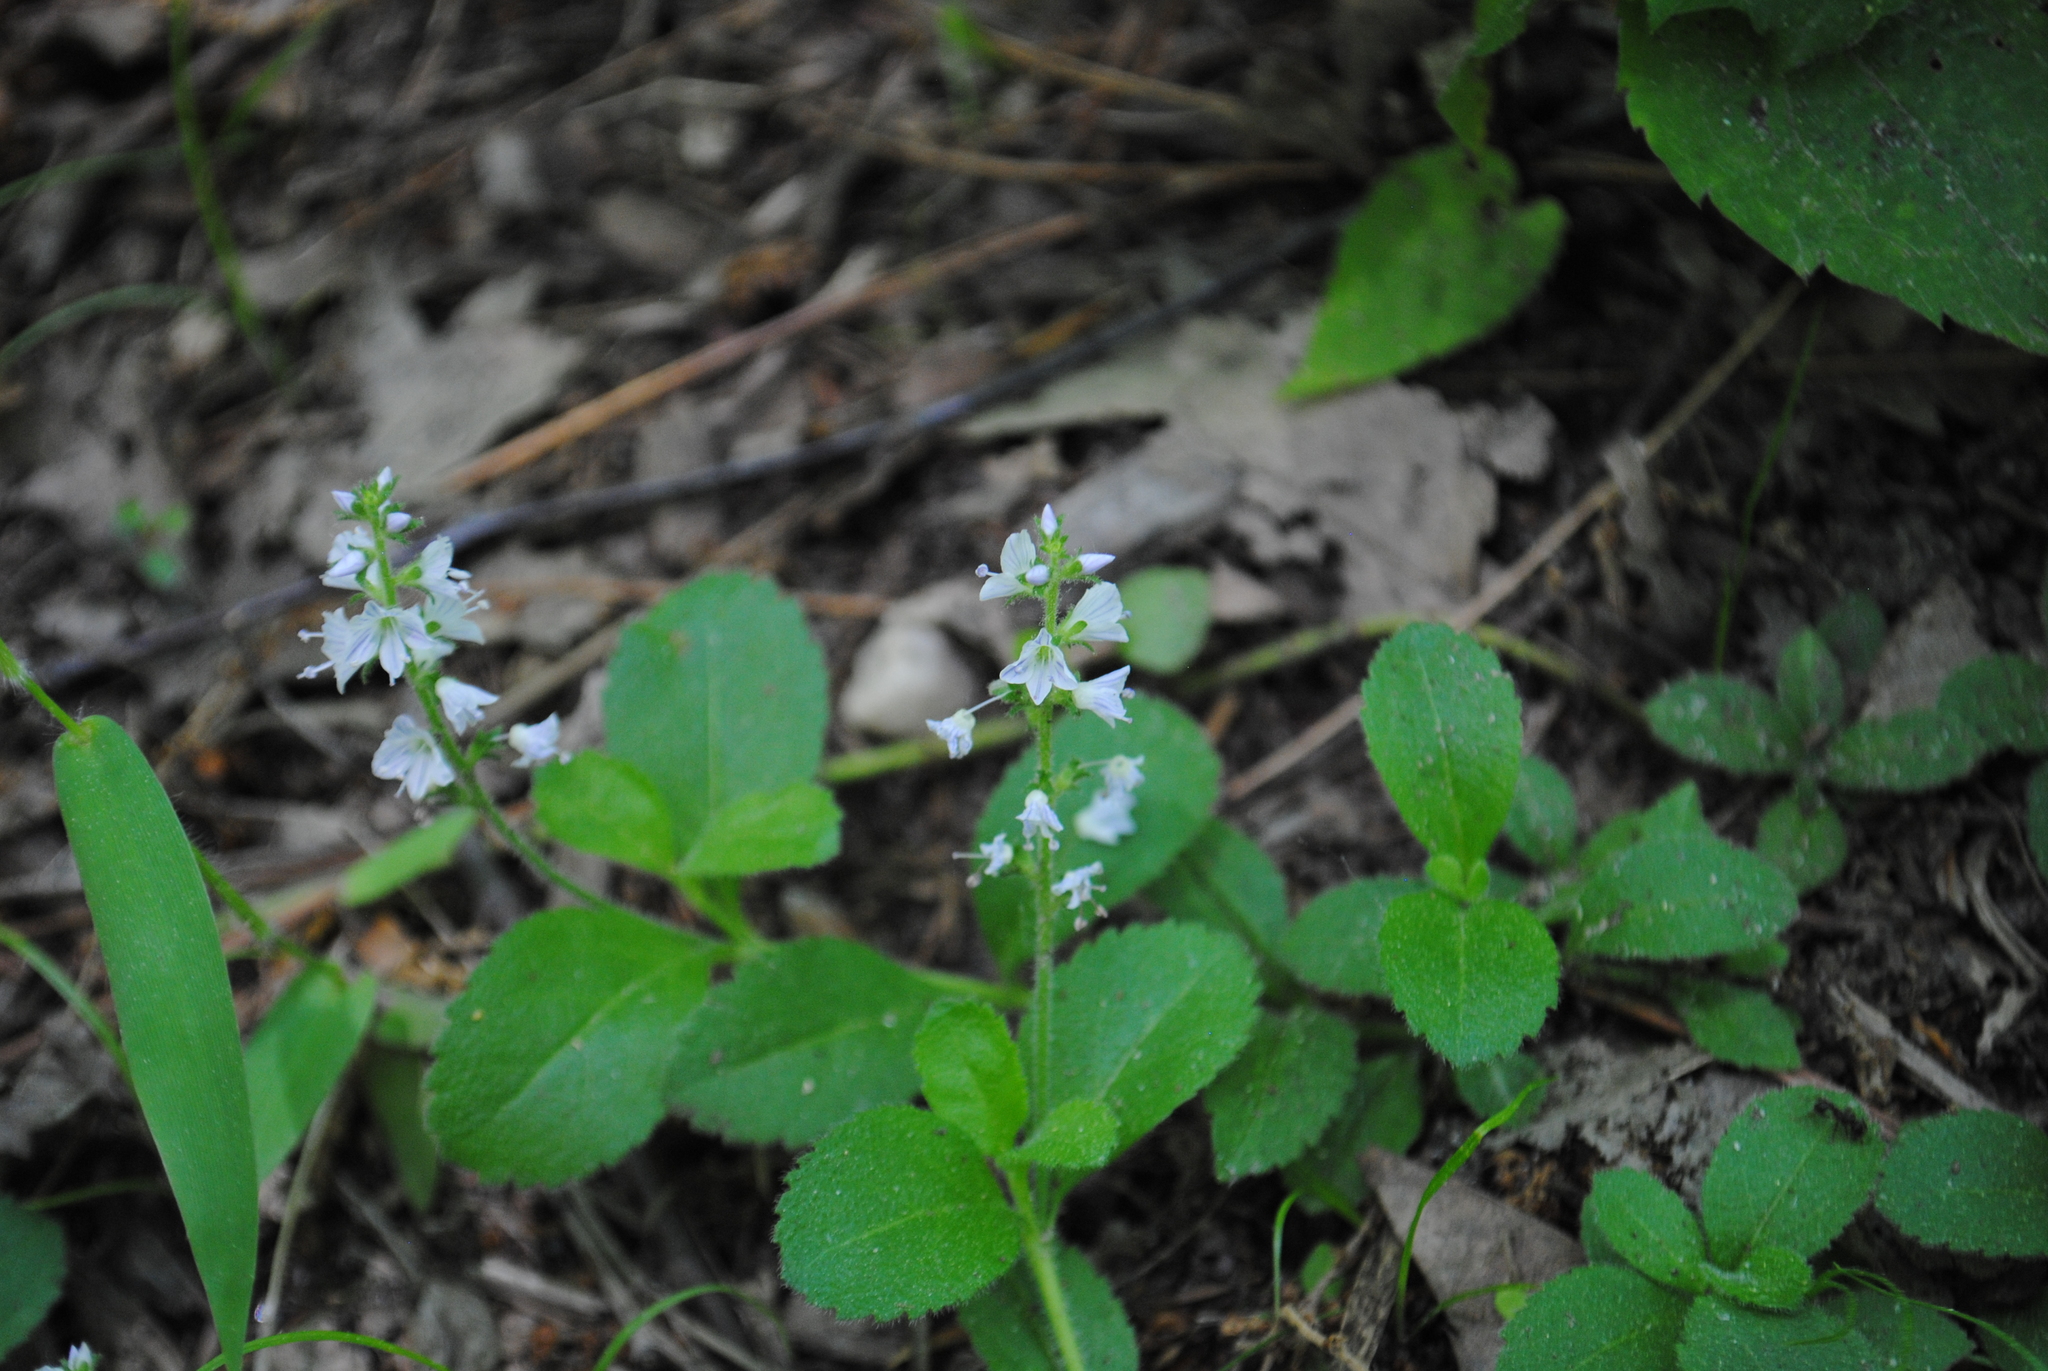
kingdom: Plantae
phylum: Tracheophyta
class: Magnoliopsida
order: Lamiales
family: Plantaginaceae
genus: Veronica
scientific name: Veronica officinalis
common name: Common speedwell
